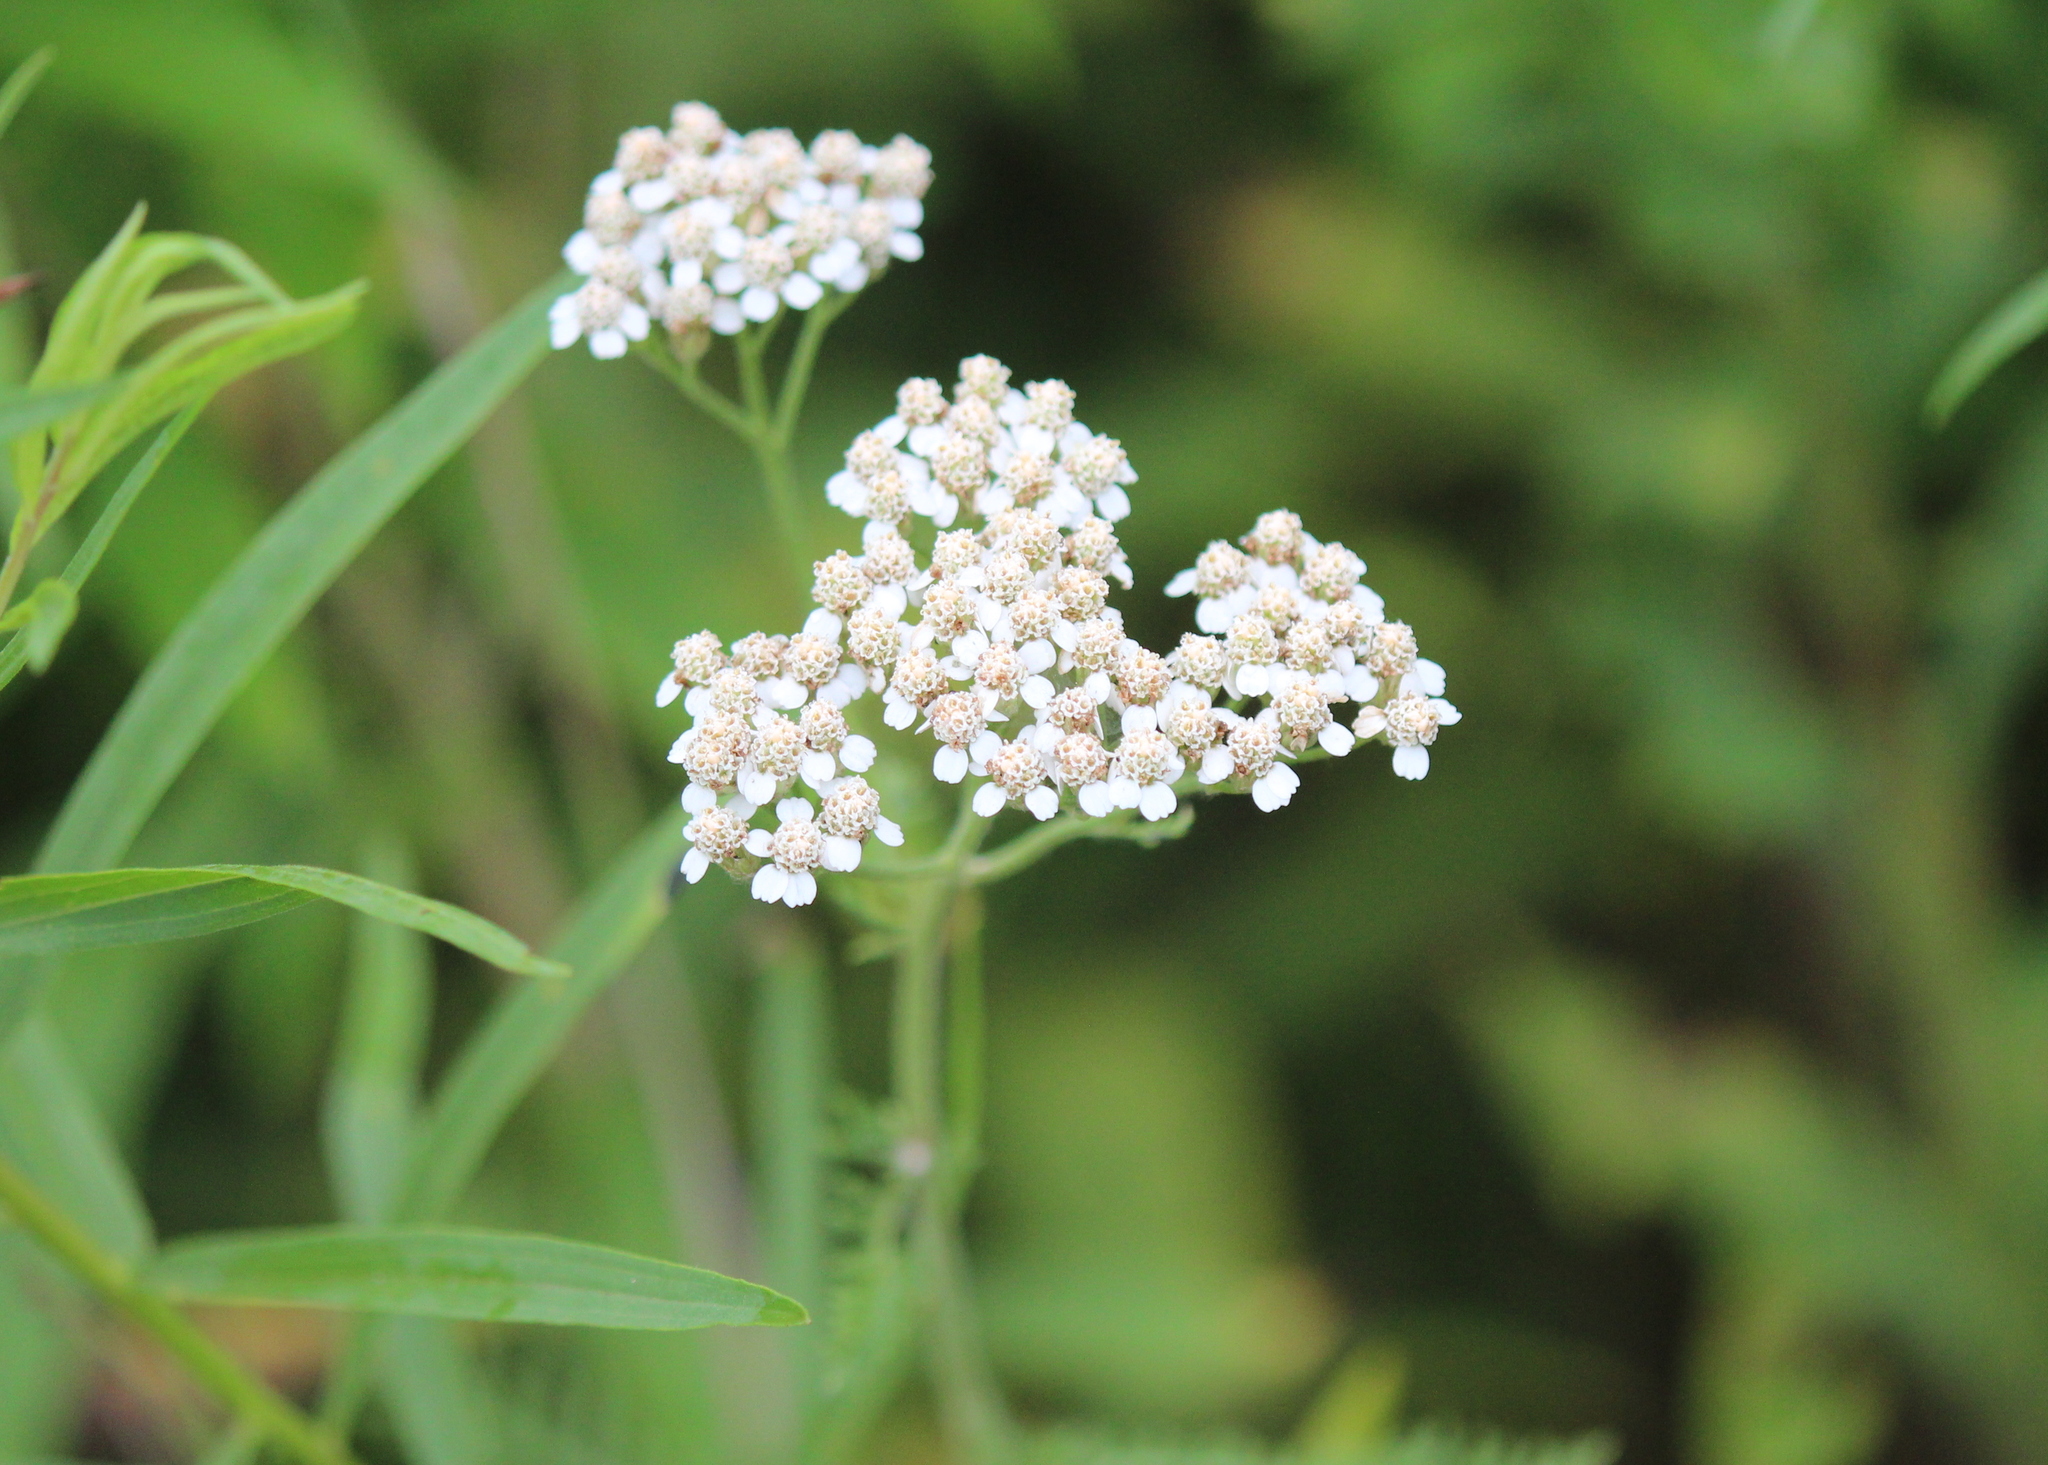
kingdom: Plantae
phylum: Tracheophyta
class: Magnoliopsida
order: Asterales
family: Asteraceae
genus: Achillea
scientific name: Achillea millefolium
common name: Yarrow
